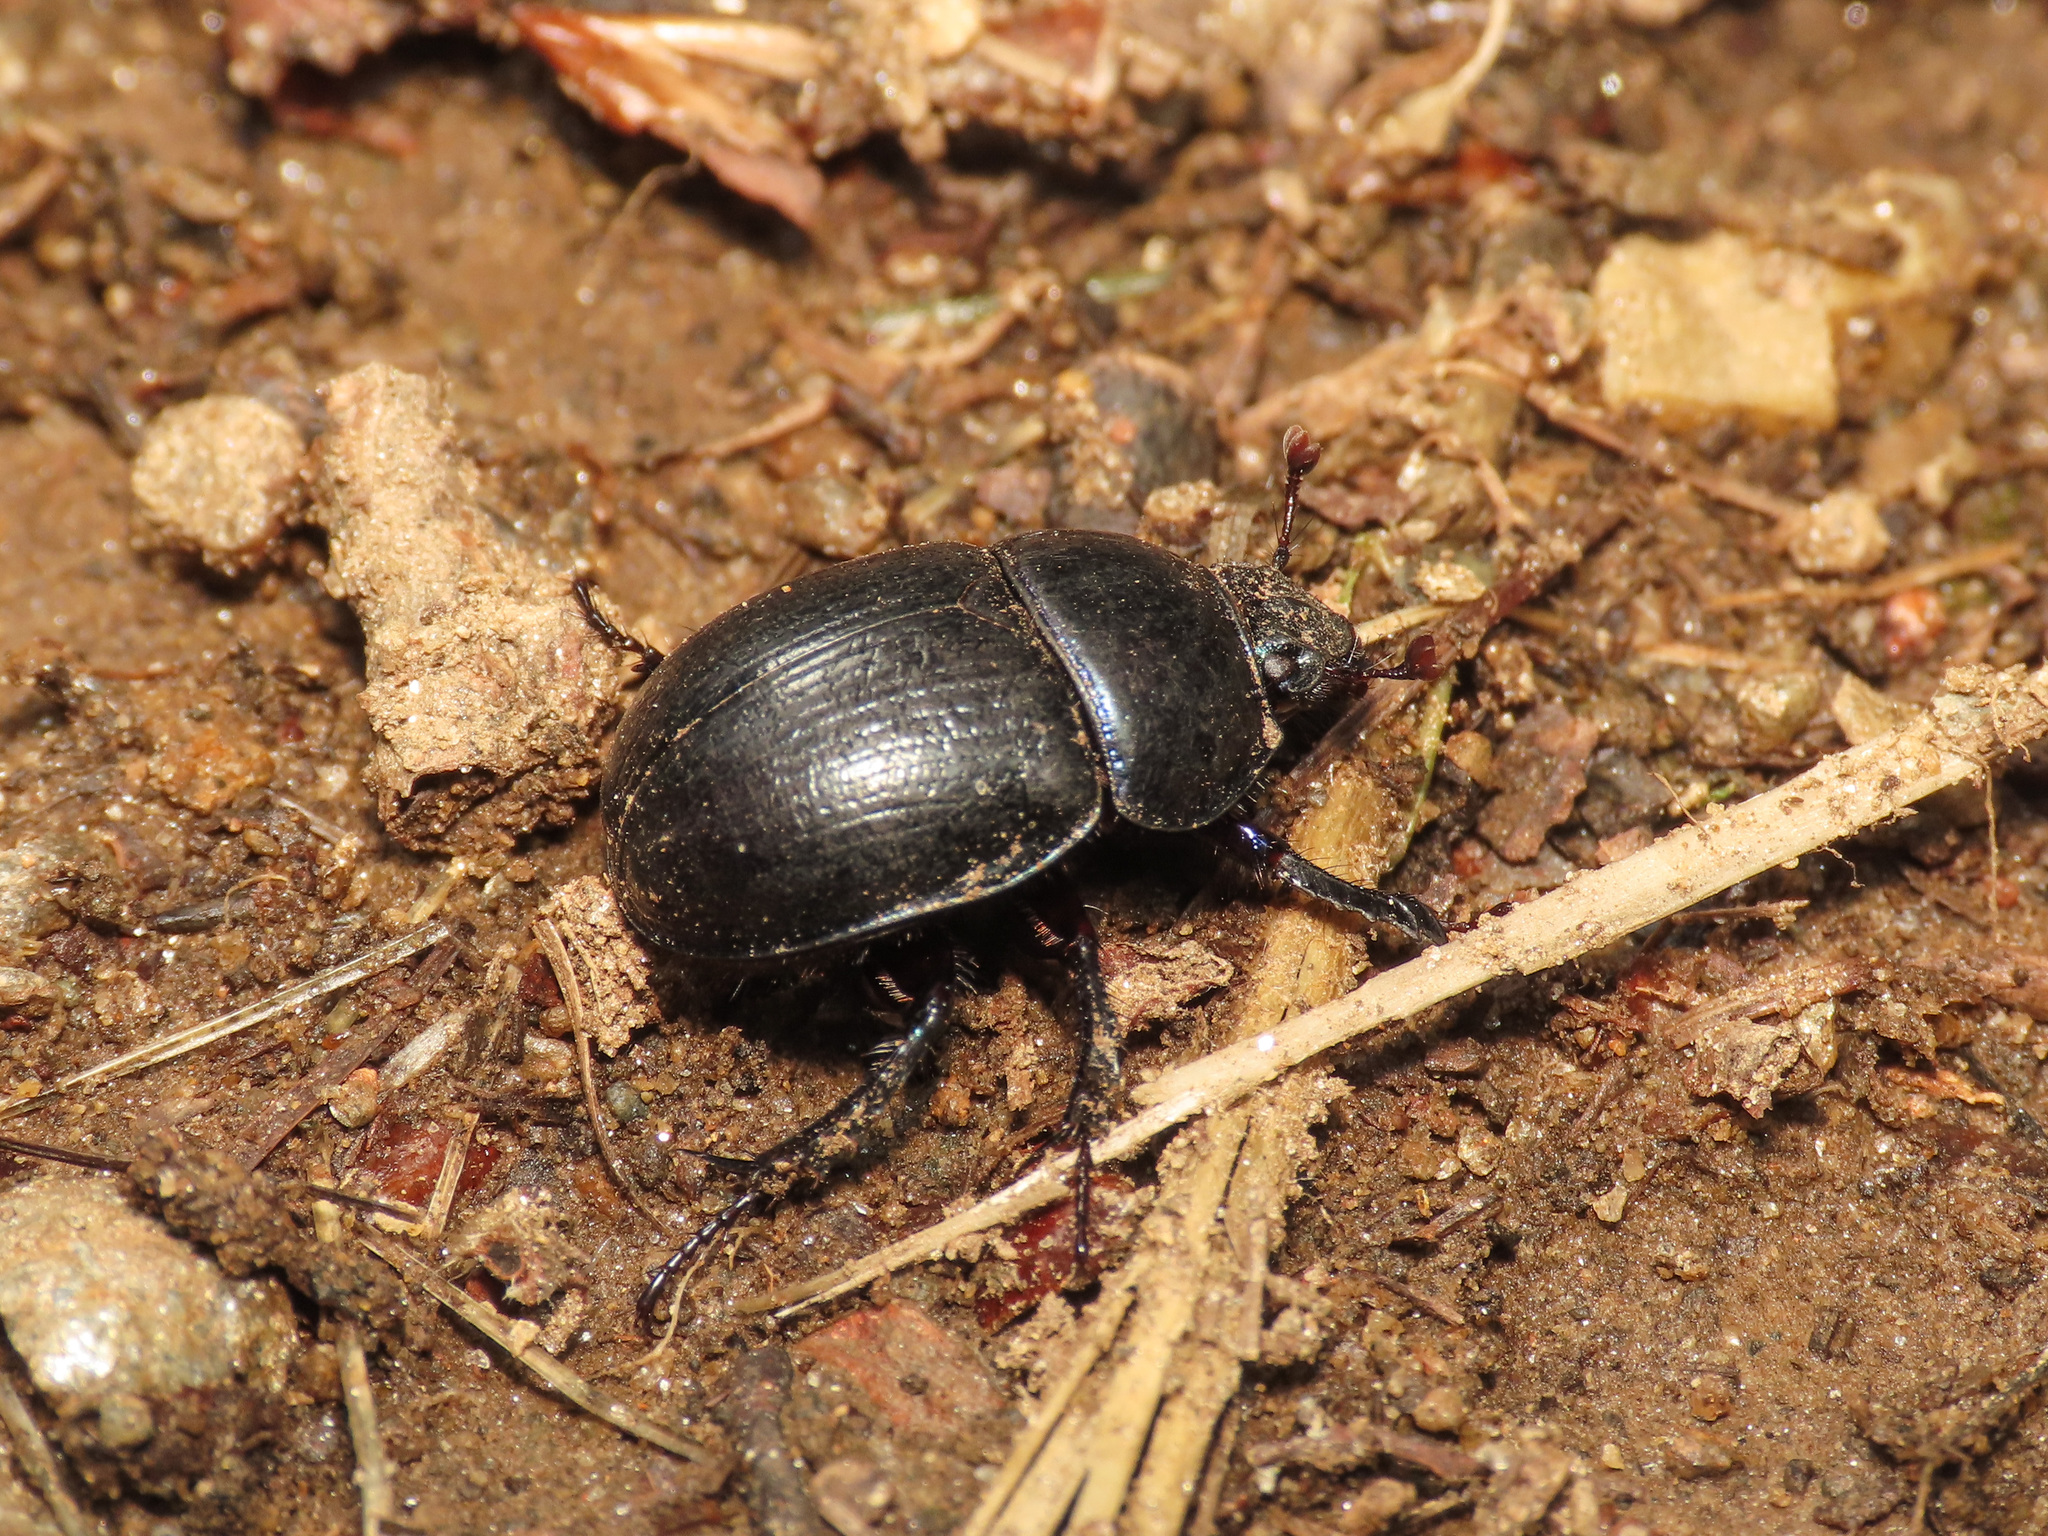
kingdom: Animalia
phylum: Arthropoda
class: Insecta
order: Coleoptera
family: Geotrupidae
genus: Anoplotrupes
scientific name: Anoplotrupes stercorosus
